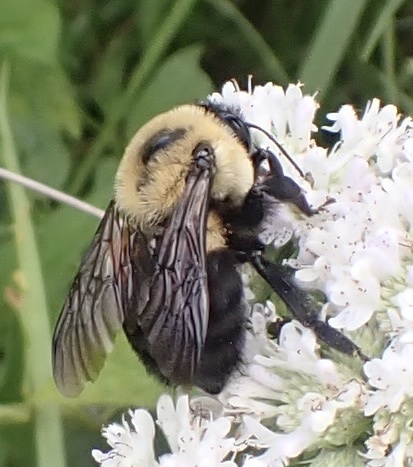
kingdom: Animalia
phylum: Arthropoda
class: Insecta
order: Hymenoptera
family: Apidae
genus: Bombus
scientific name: Bombus griseocollis
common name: Brown-belted bumble bee
